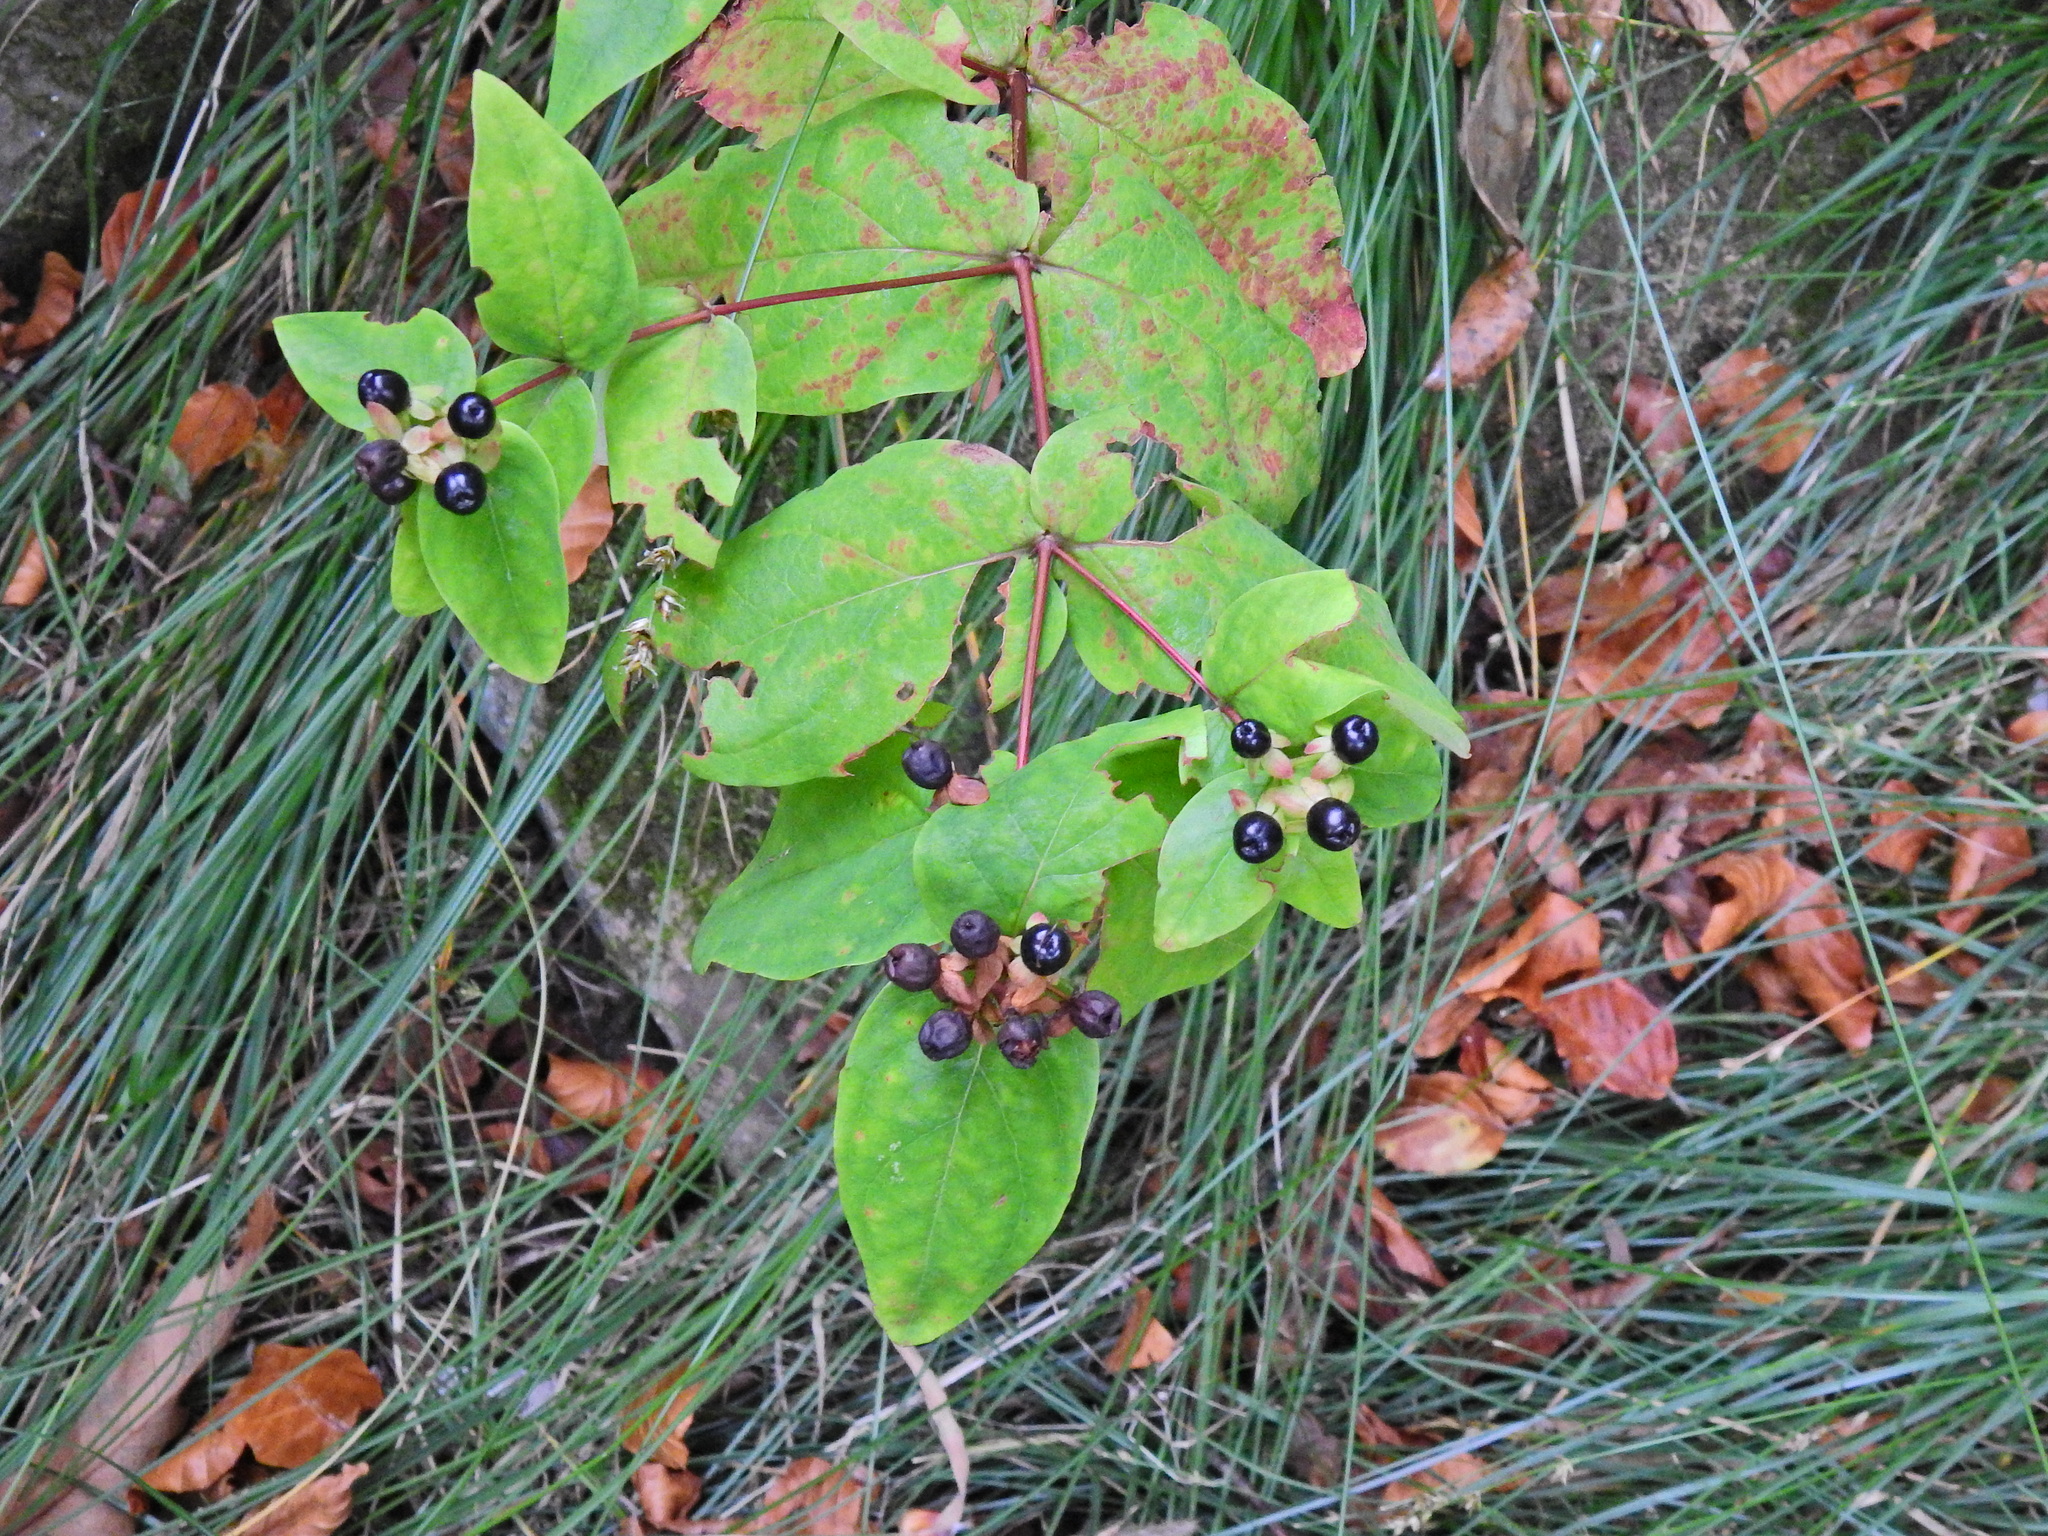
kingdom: Plantae
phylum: Tracheophyta
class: Magnoliopsida
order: Malpighiales
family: Hypericaceae
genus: Hypericum
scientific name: Hypericum androsaemum
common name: Sweet-amber
